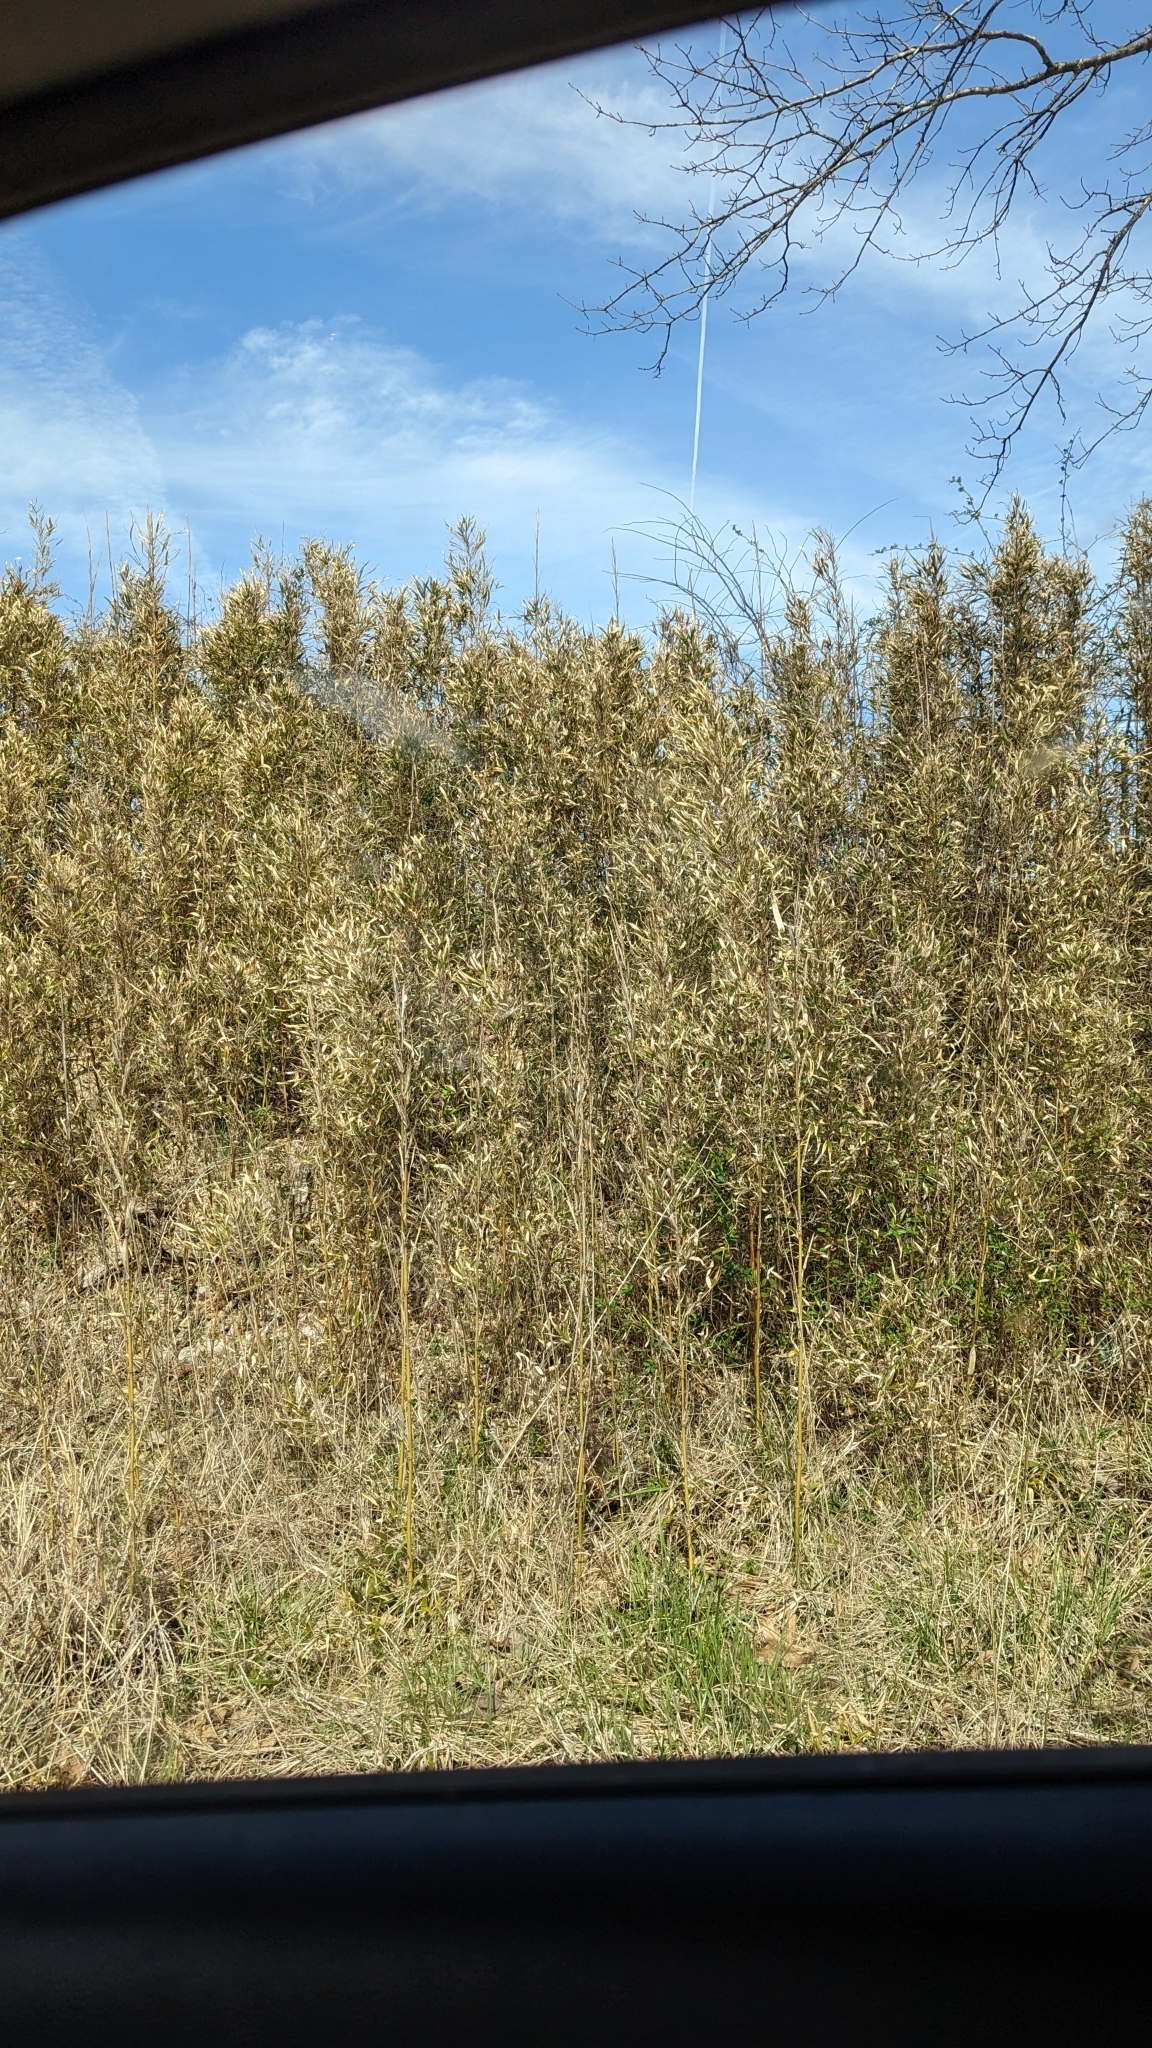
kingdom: Plantae
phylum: Tracheophyta
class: Liliopsida
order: Poales
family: Poaceae
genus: Arundinaria
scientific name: Arundinaria gigantea
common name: Giant cane
